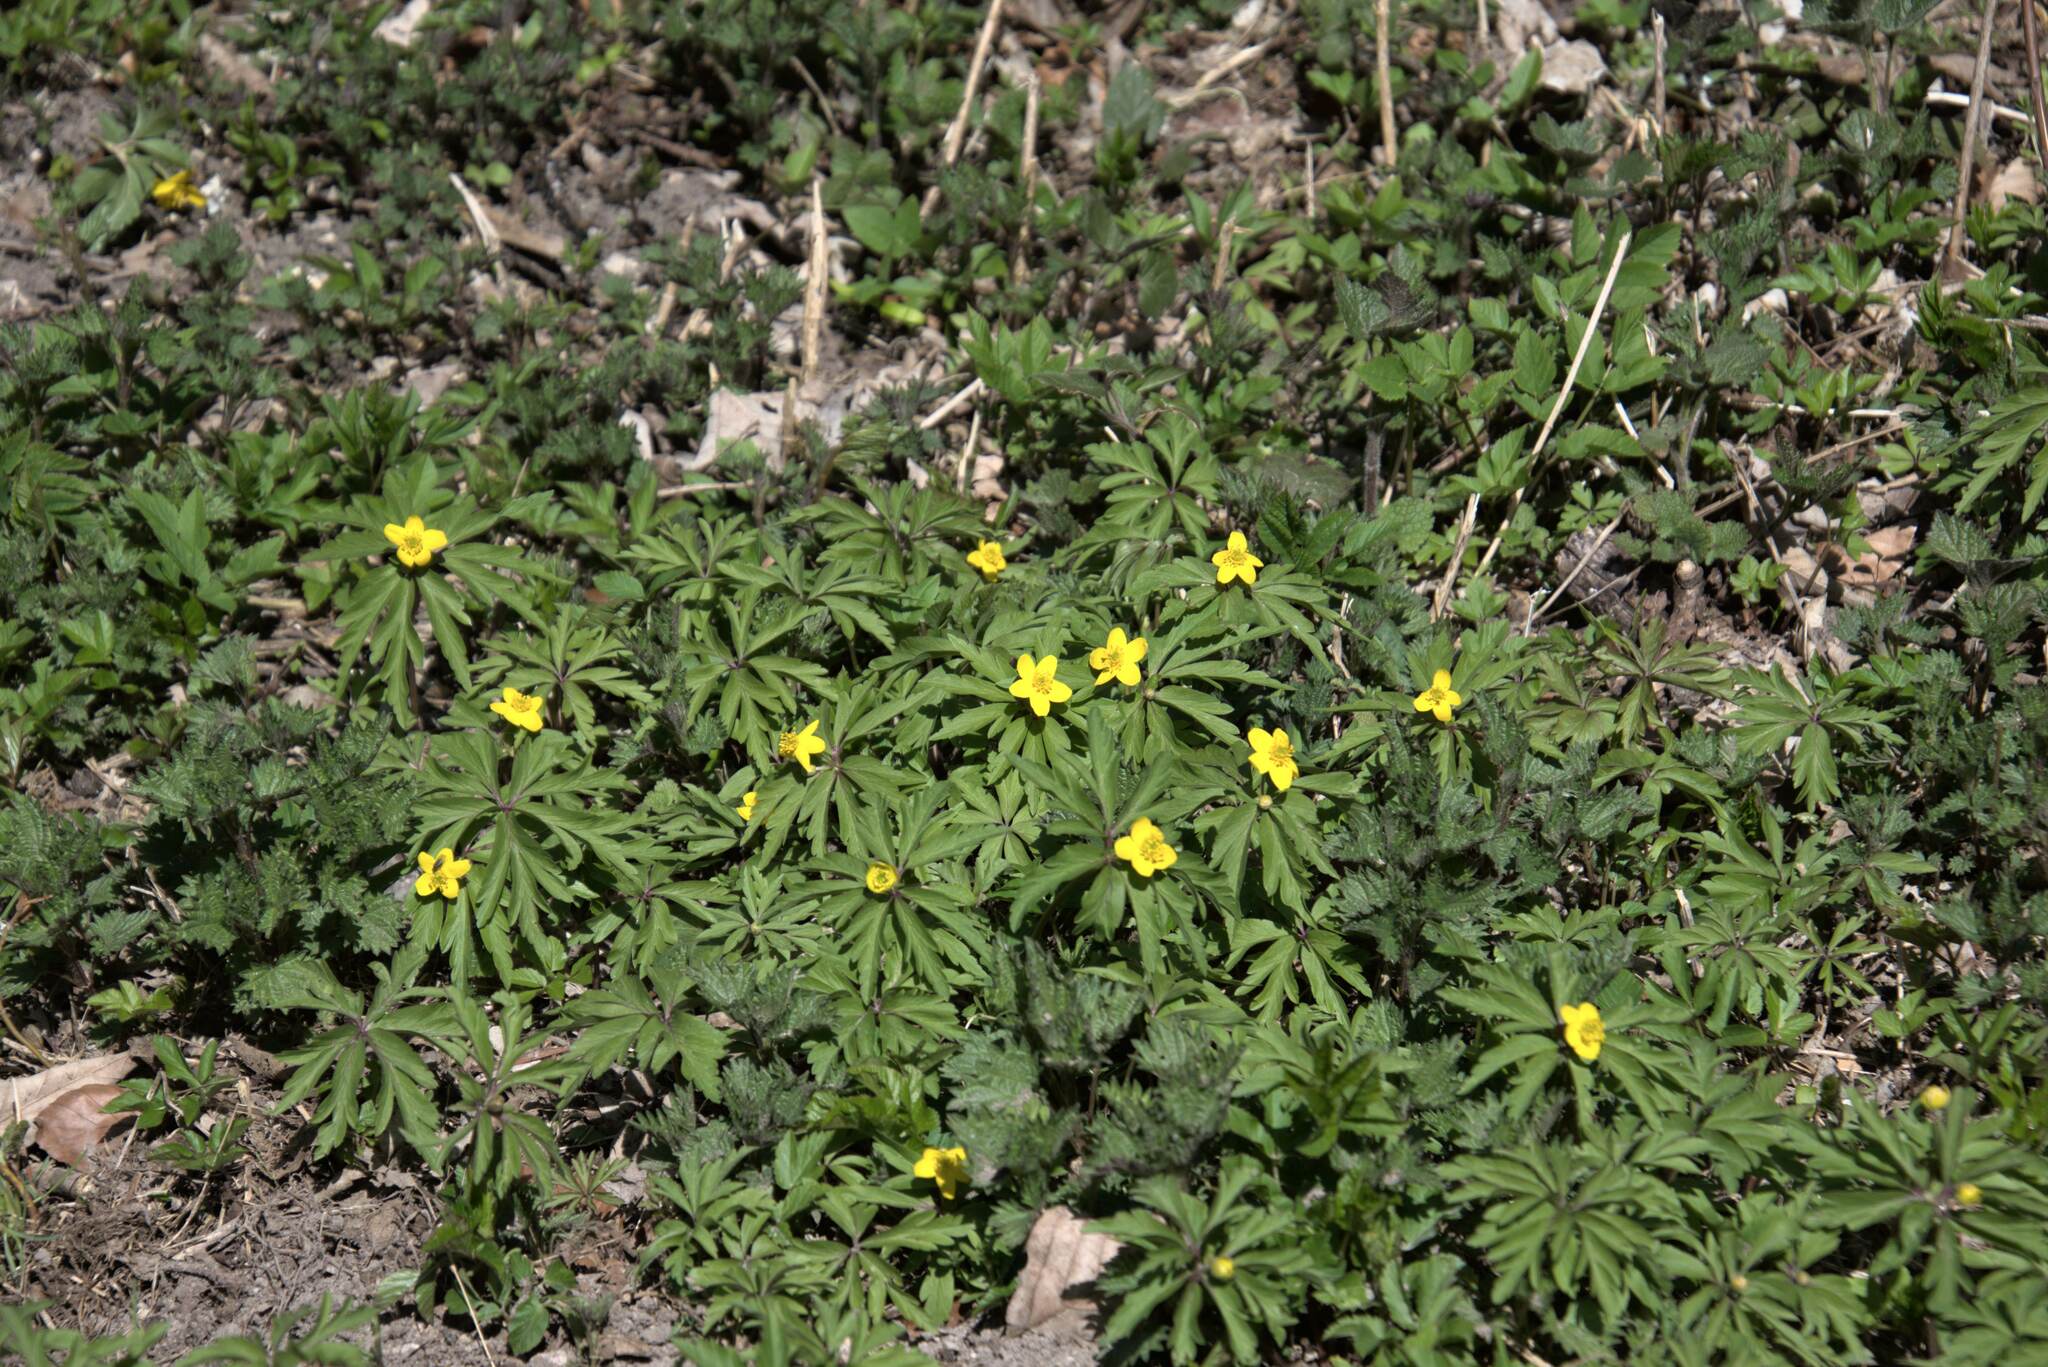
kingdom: Plantae
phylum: Tracheophyta
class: Magnoliopsida
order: Ranunculales
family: Ranunculaceae
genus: Anemone
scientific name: Anemone ranunculoides
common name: Yellow anemone
